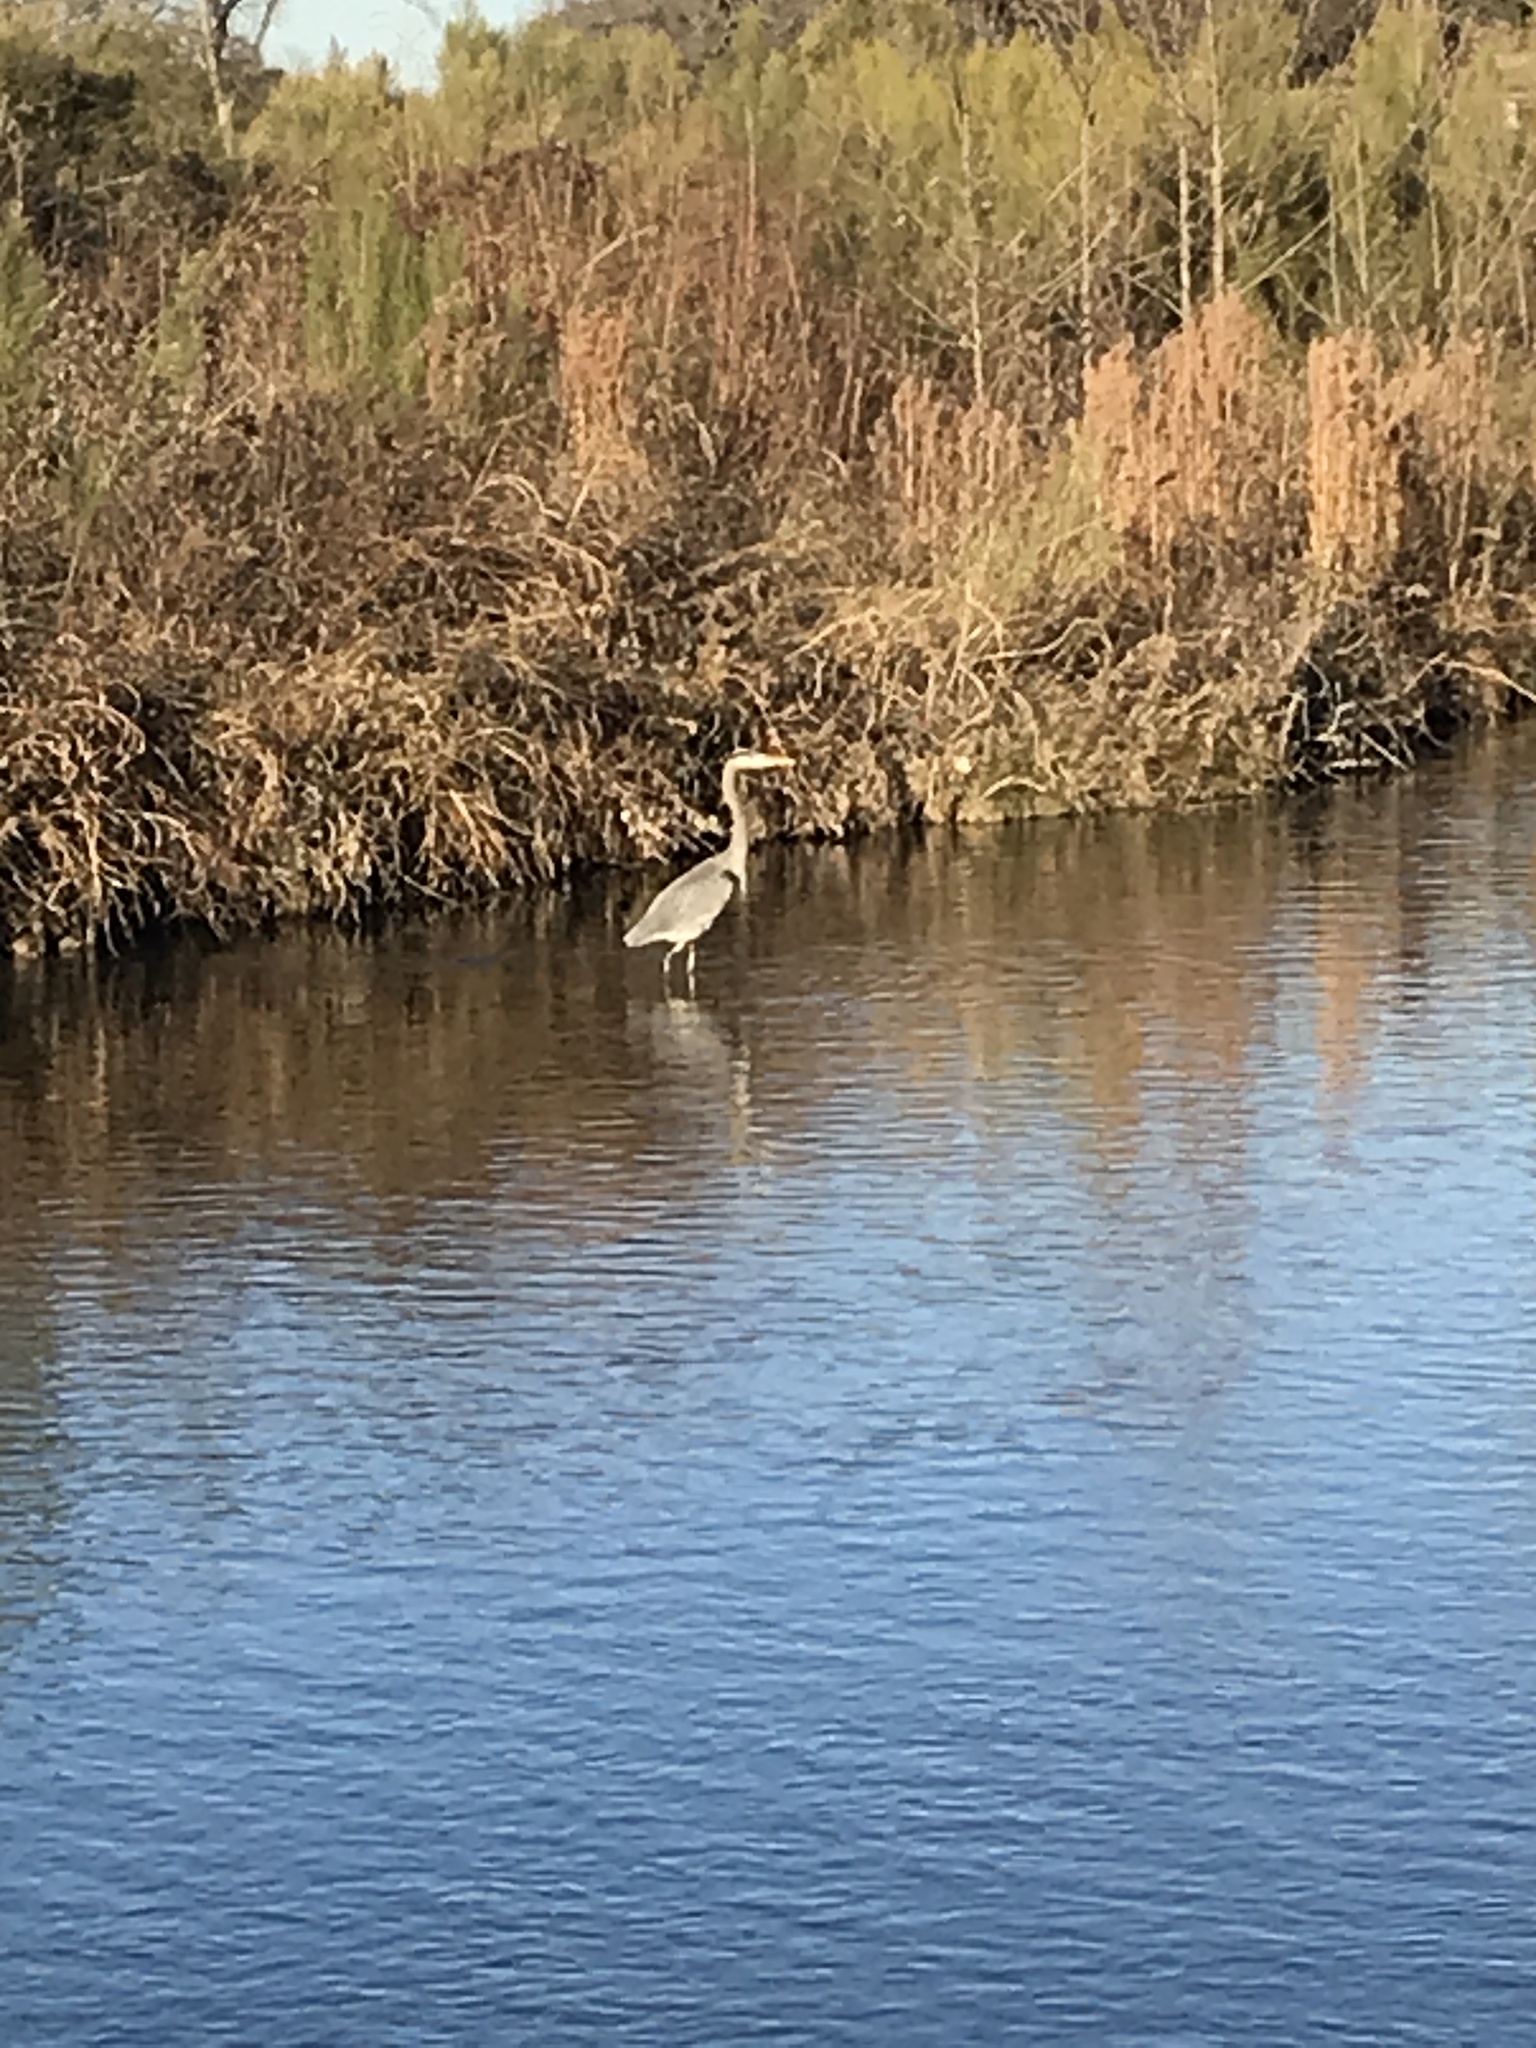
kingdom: Animalia
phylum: Chordata
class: Aves
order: Pelecaniformes
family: Ardeidae
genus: Ardea
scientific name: Ardea herodias
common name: Great blue heron
